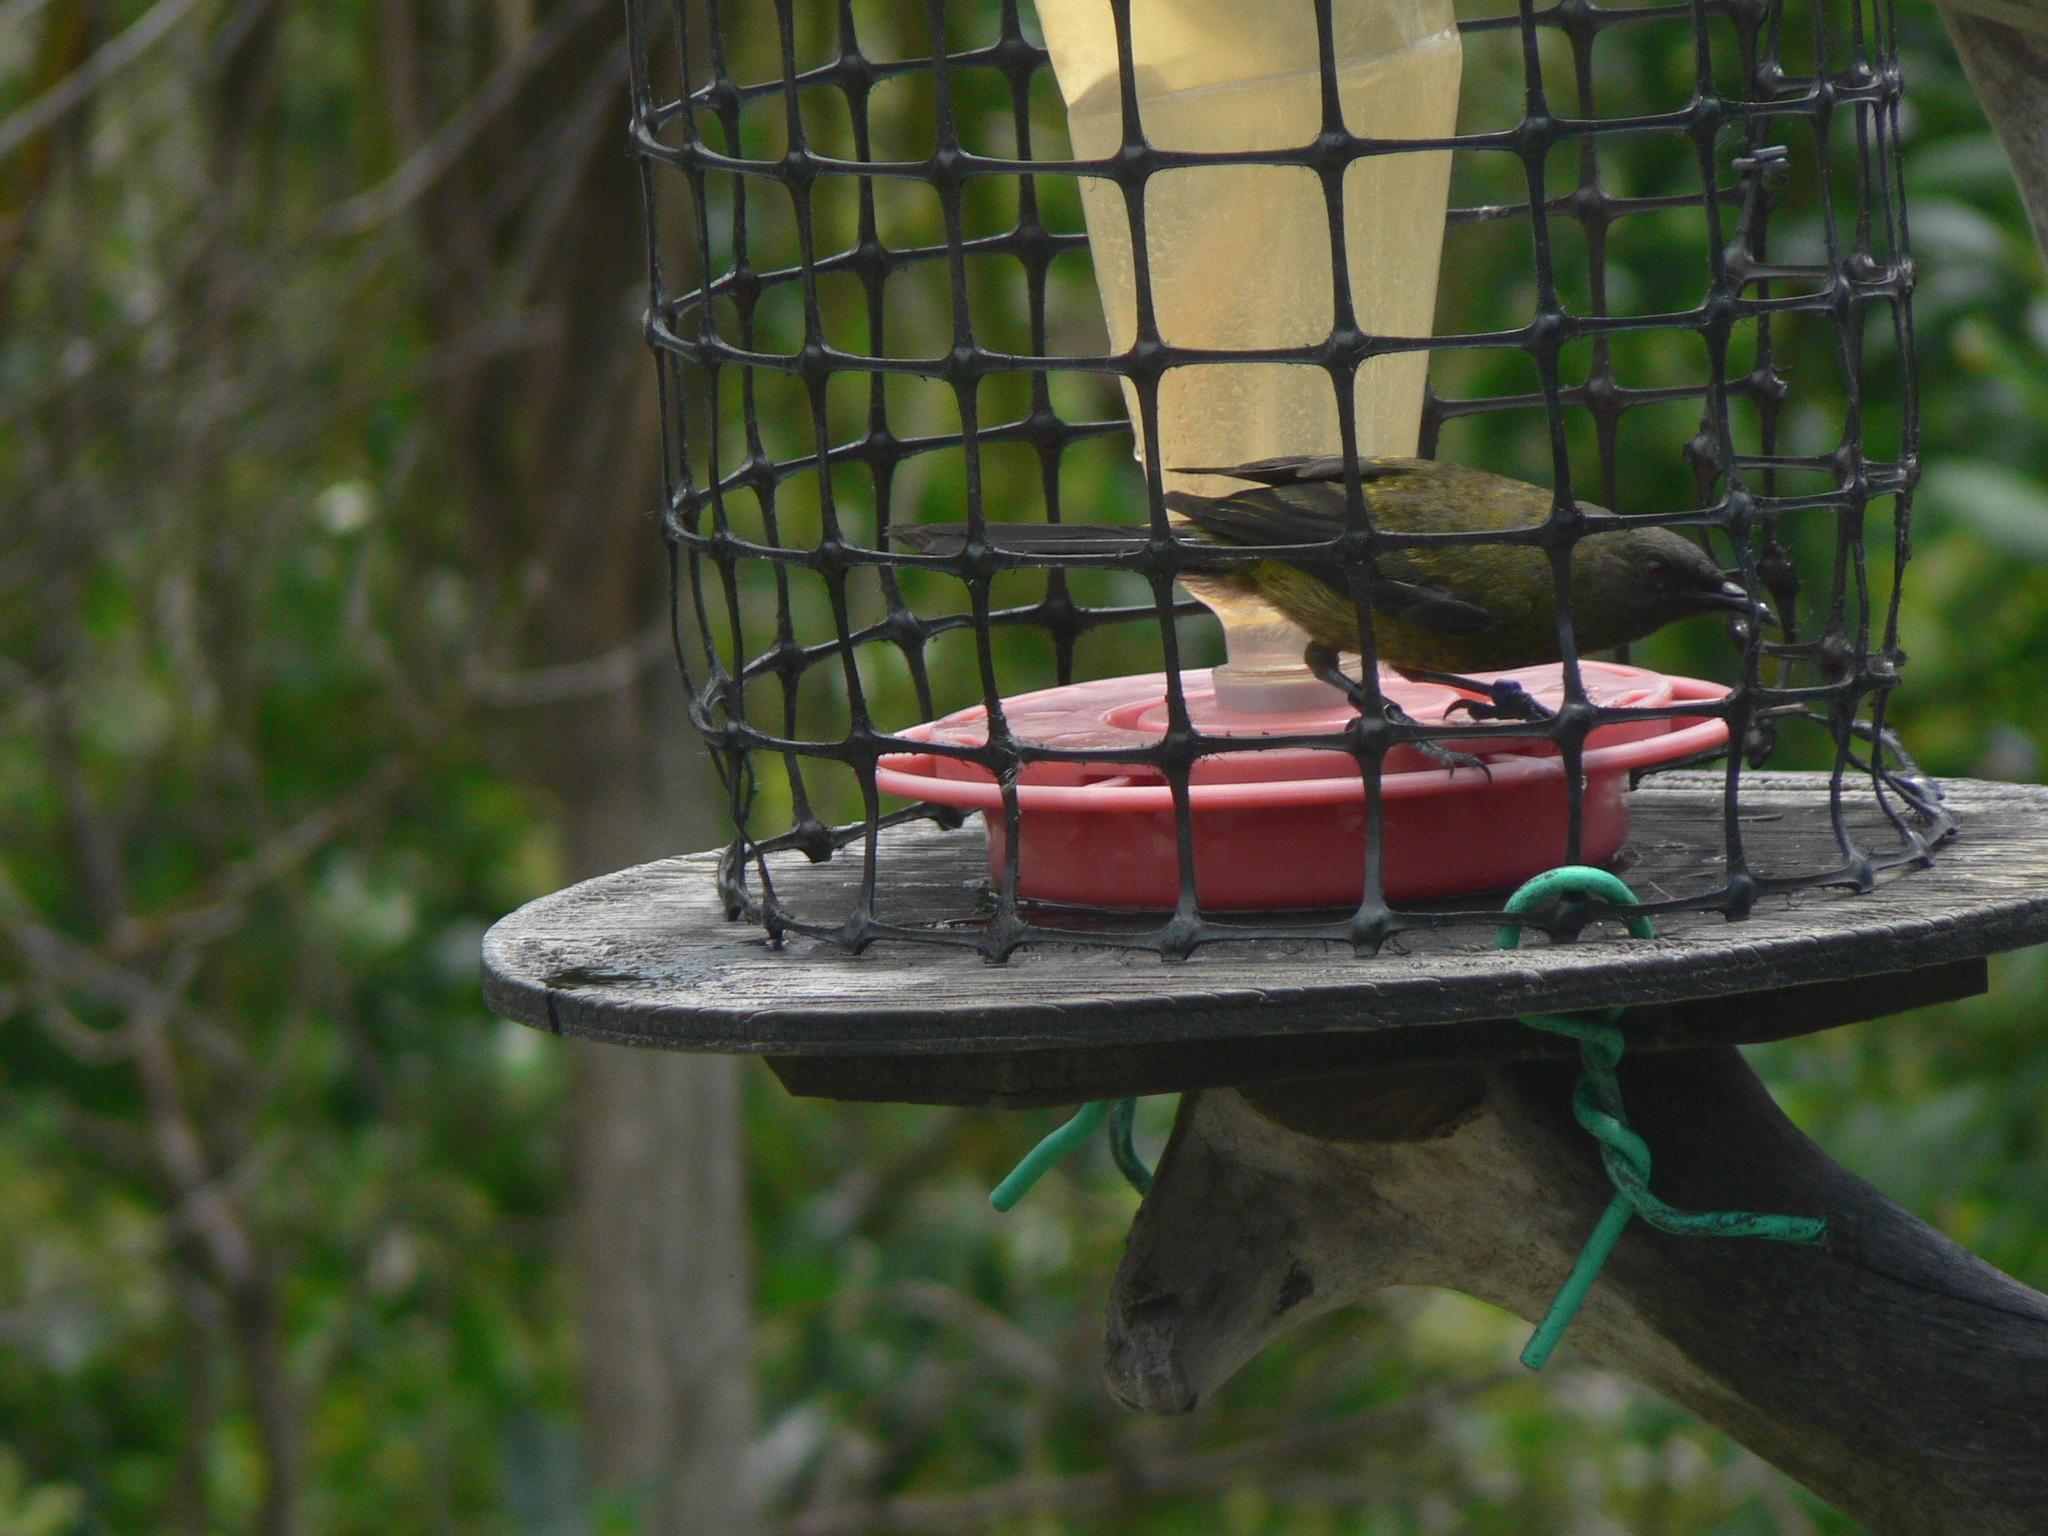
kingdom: Animalia
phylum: Chordata
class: Aves
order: Passeriformes
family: Meliphagidae
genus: Anthornis
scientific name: Anthornis melanura
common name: New zealand bellbird
